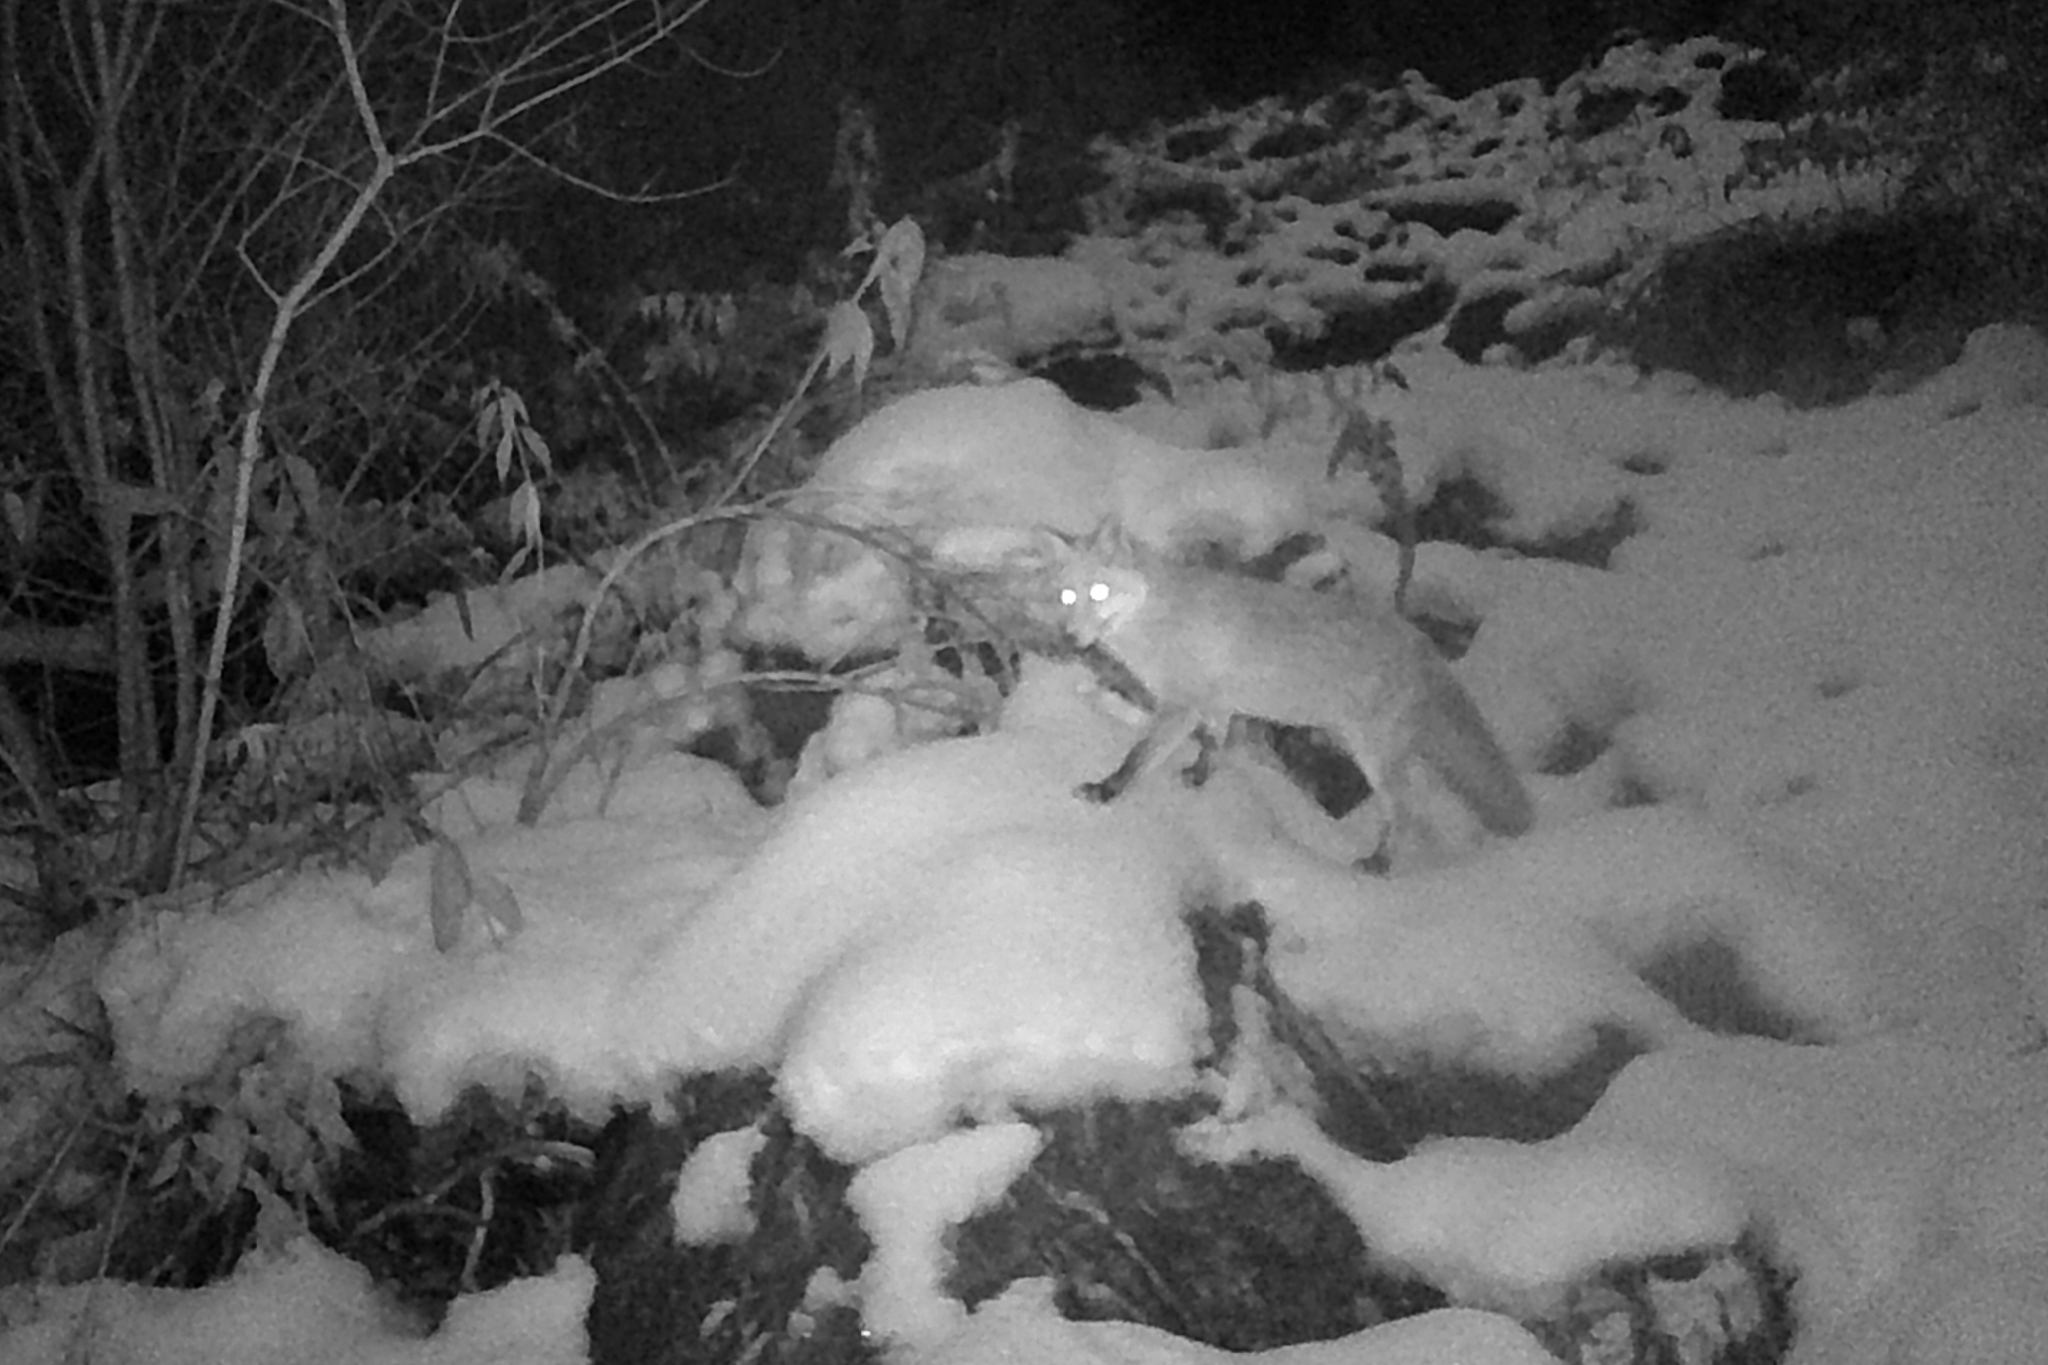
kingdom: Animalia
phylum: Chordata
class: Mammalia
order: Carnivora
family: Canidae
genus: Vulpes
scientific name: Vulpes vulpes
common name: Red fox
